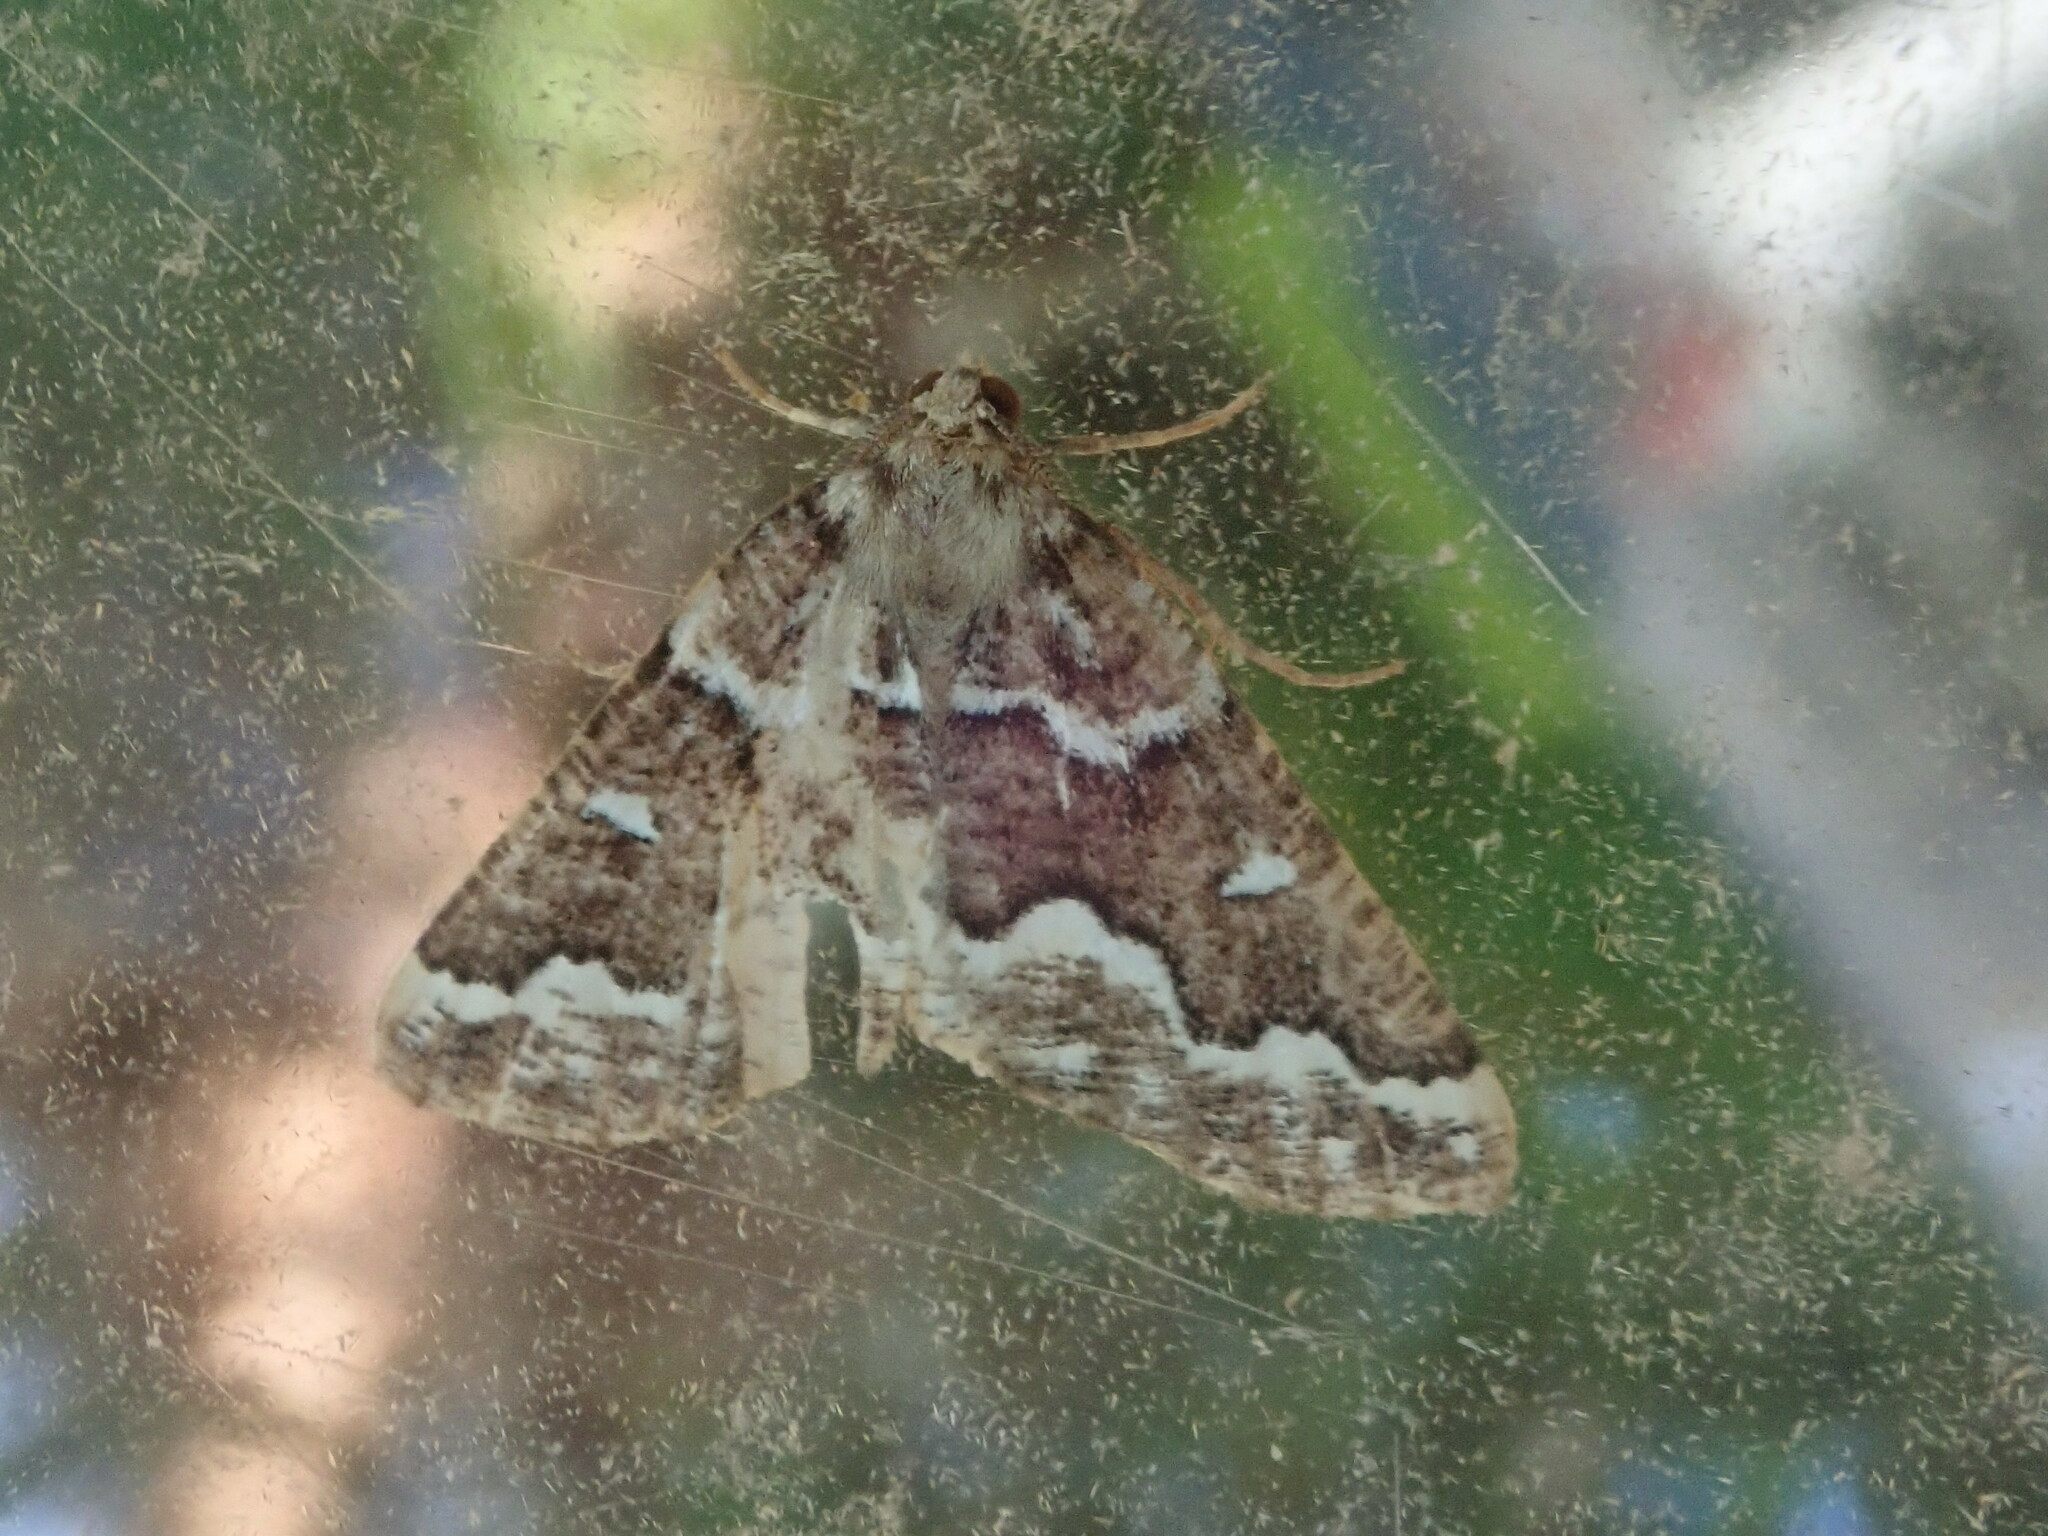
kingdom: Animalia
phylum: Arthropoda
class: Insecta
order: Lepidoptera
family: Geometridae
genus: Caripeta
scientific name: Caripeta divisata
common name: Gray spruce looper
